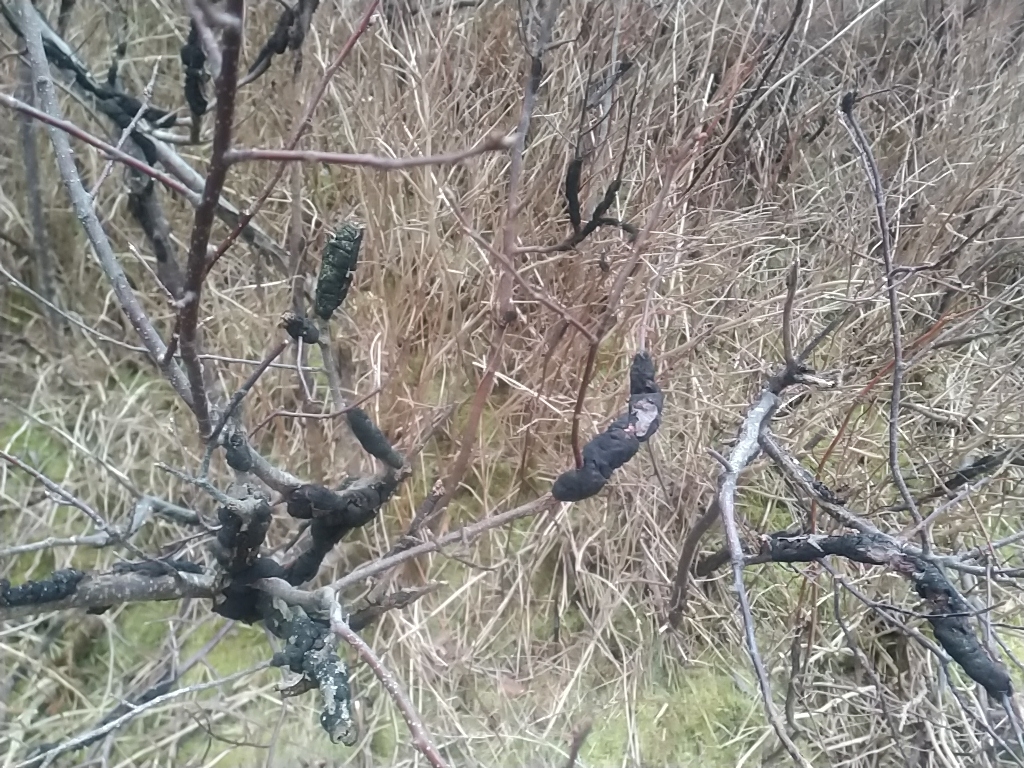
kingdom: Fungi
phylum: Ascomycota
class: Dothideomycetes
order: Venturiales
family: Venturiaceae
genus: Apiosporina
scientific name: Apiosporina morbosa
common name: Black knot
